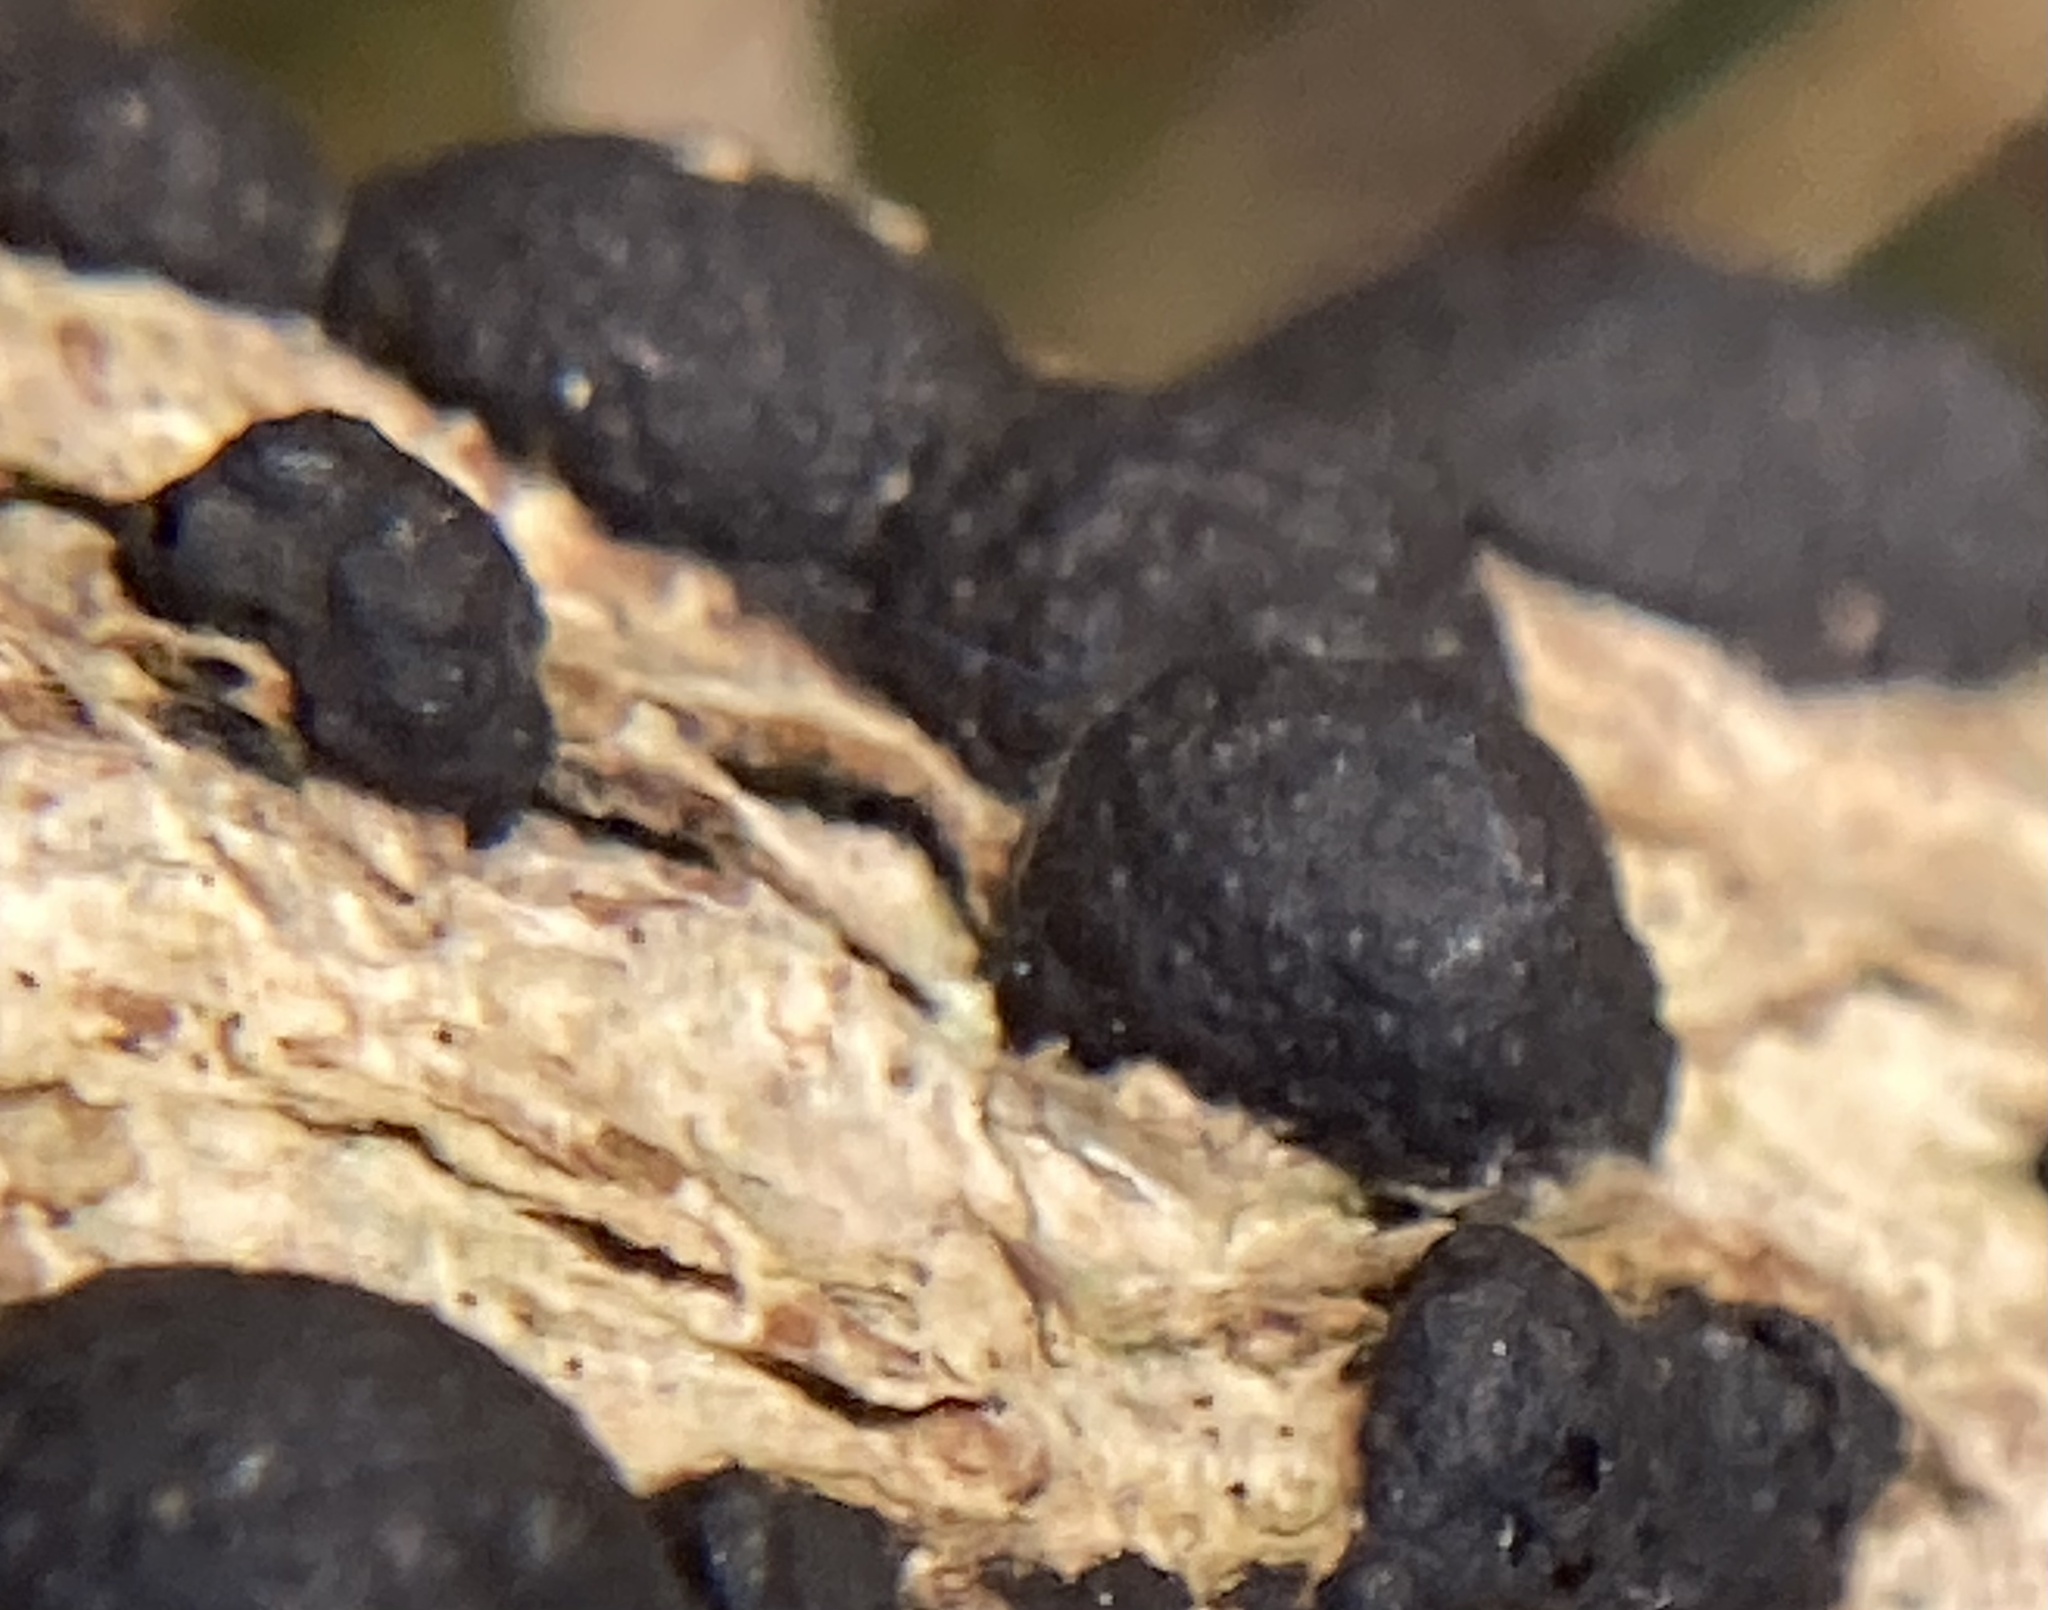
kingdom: Fungi
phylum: Ascomycota
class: Sordariomycetes
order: Xylariales
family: Hypoxylaceae
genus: Daldinia
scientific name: Daldinia childiae
